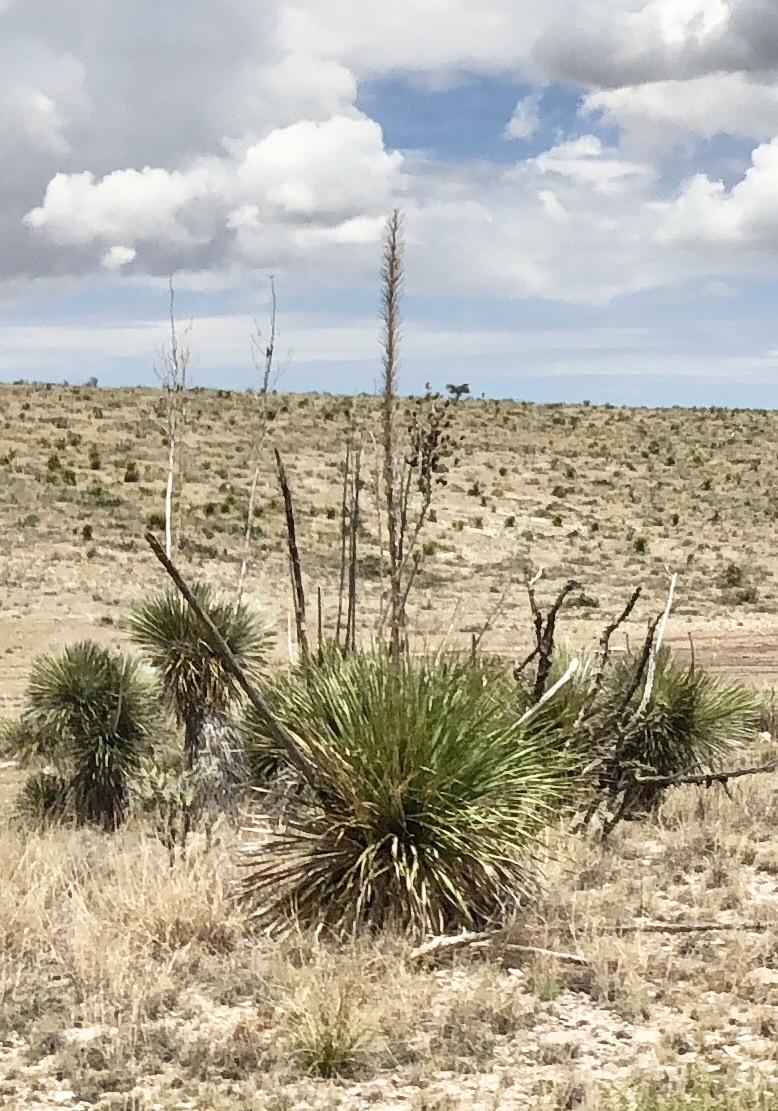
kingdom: Plantae
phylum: Tracheophyta
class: Liliopsida
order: Asparagales
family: Asparagaceae
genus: Dasylirion
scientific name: Dasylirion
